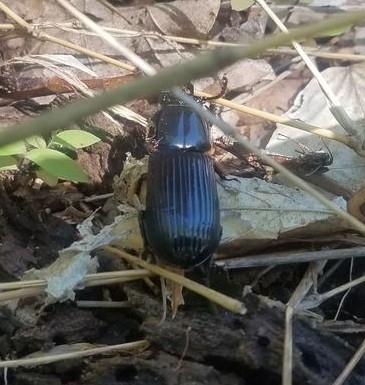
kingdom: Animalia
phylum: Arthropoda
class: Insecta
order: Coleoptera
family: Passalidae
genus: Odontotaenius
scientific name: Odontotaenius disjunctus
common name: Patent leather beetle
